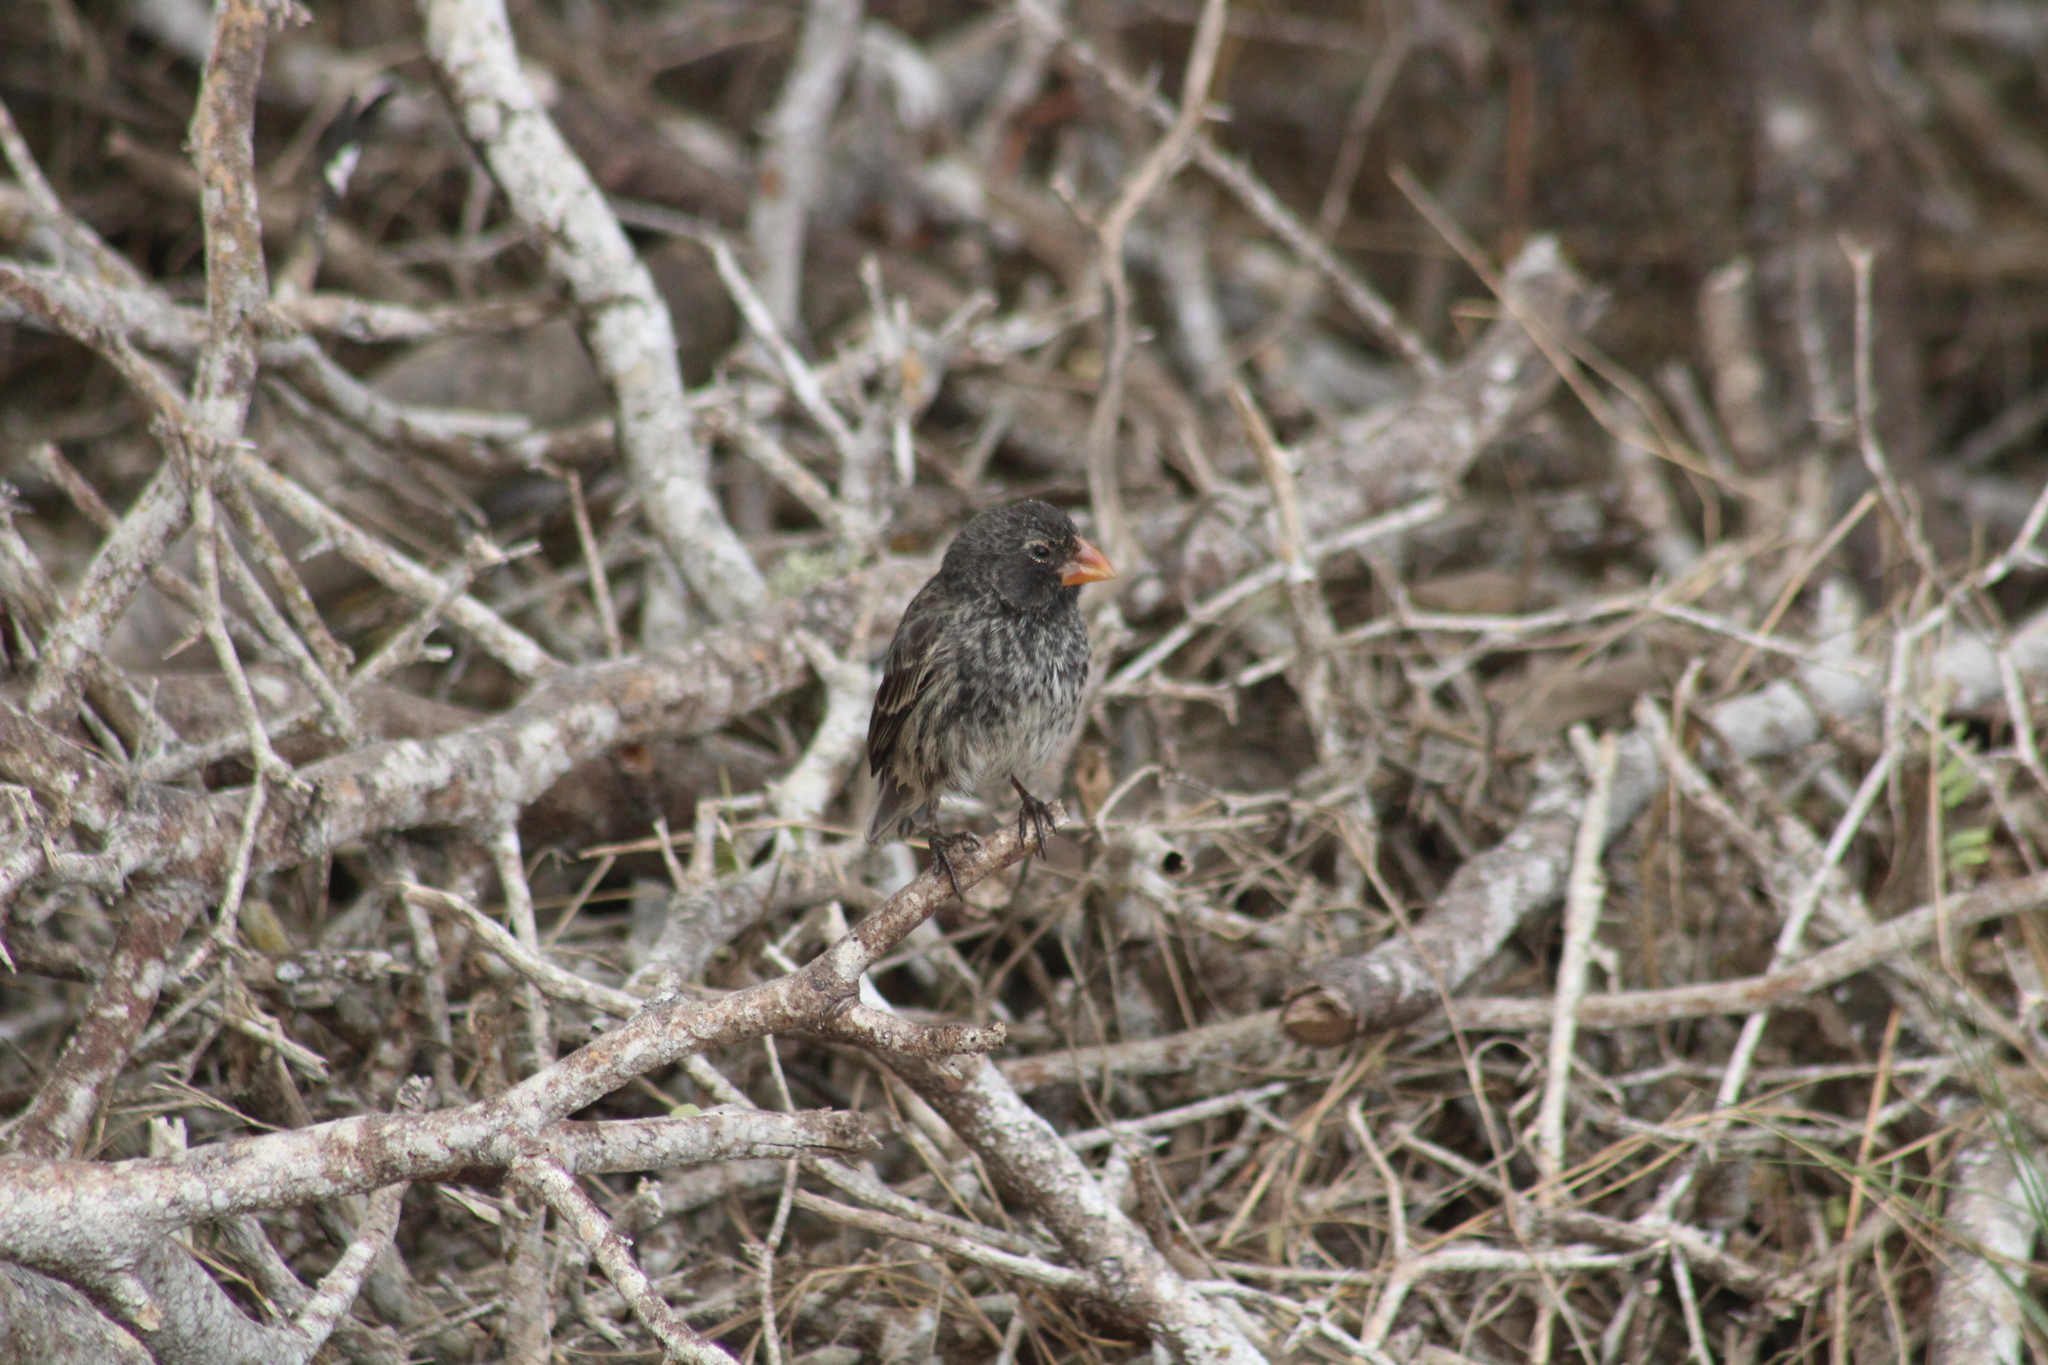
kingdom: Animalia
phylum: Chordata
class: Aves
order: Passeriformes
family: Thraupidae
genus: Geospiza
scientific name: Geospiza fortis
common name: Medium ground finch
